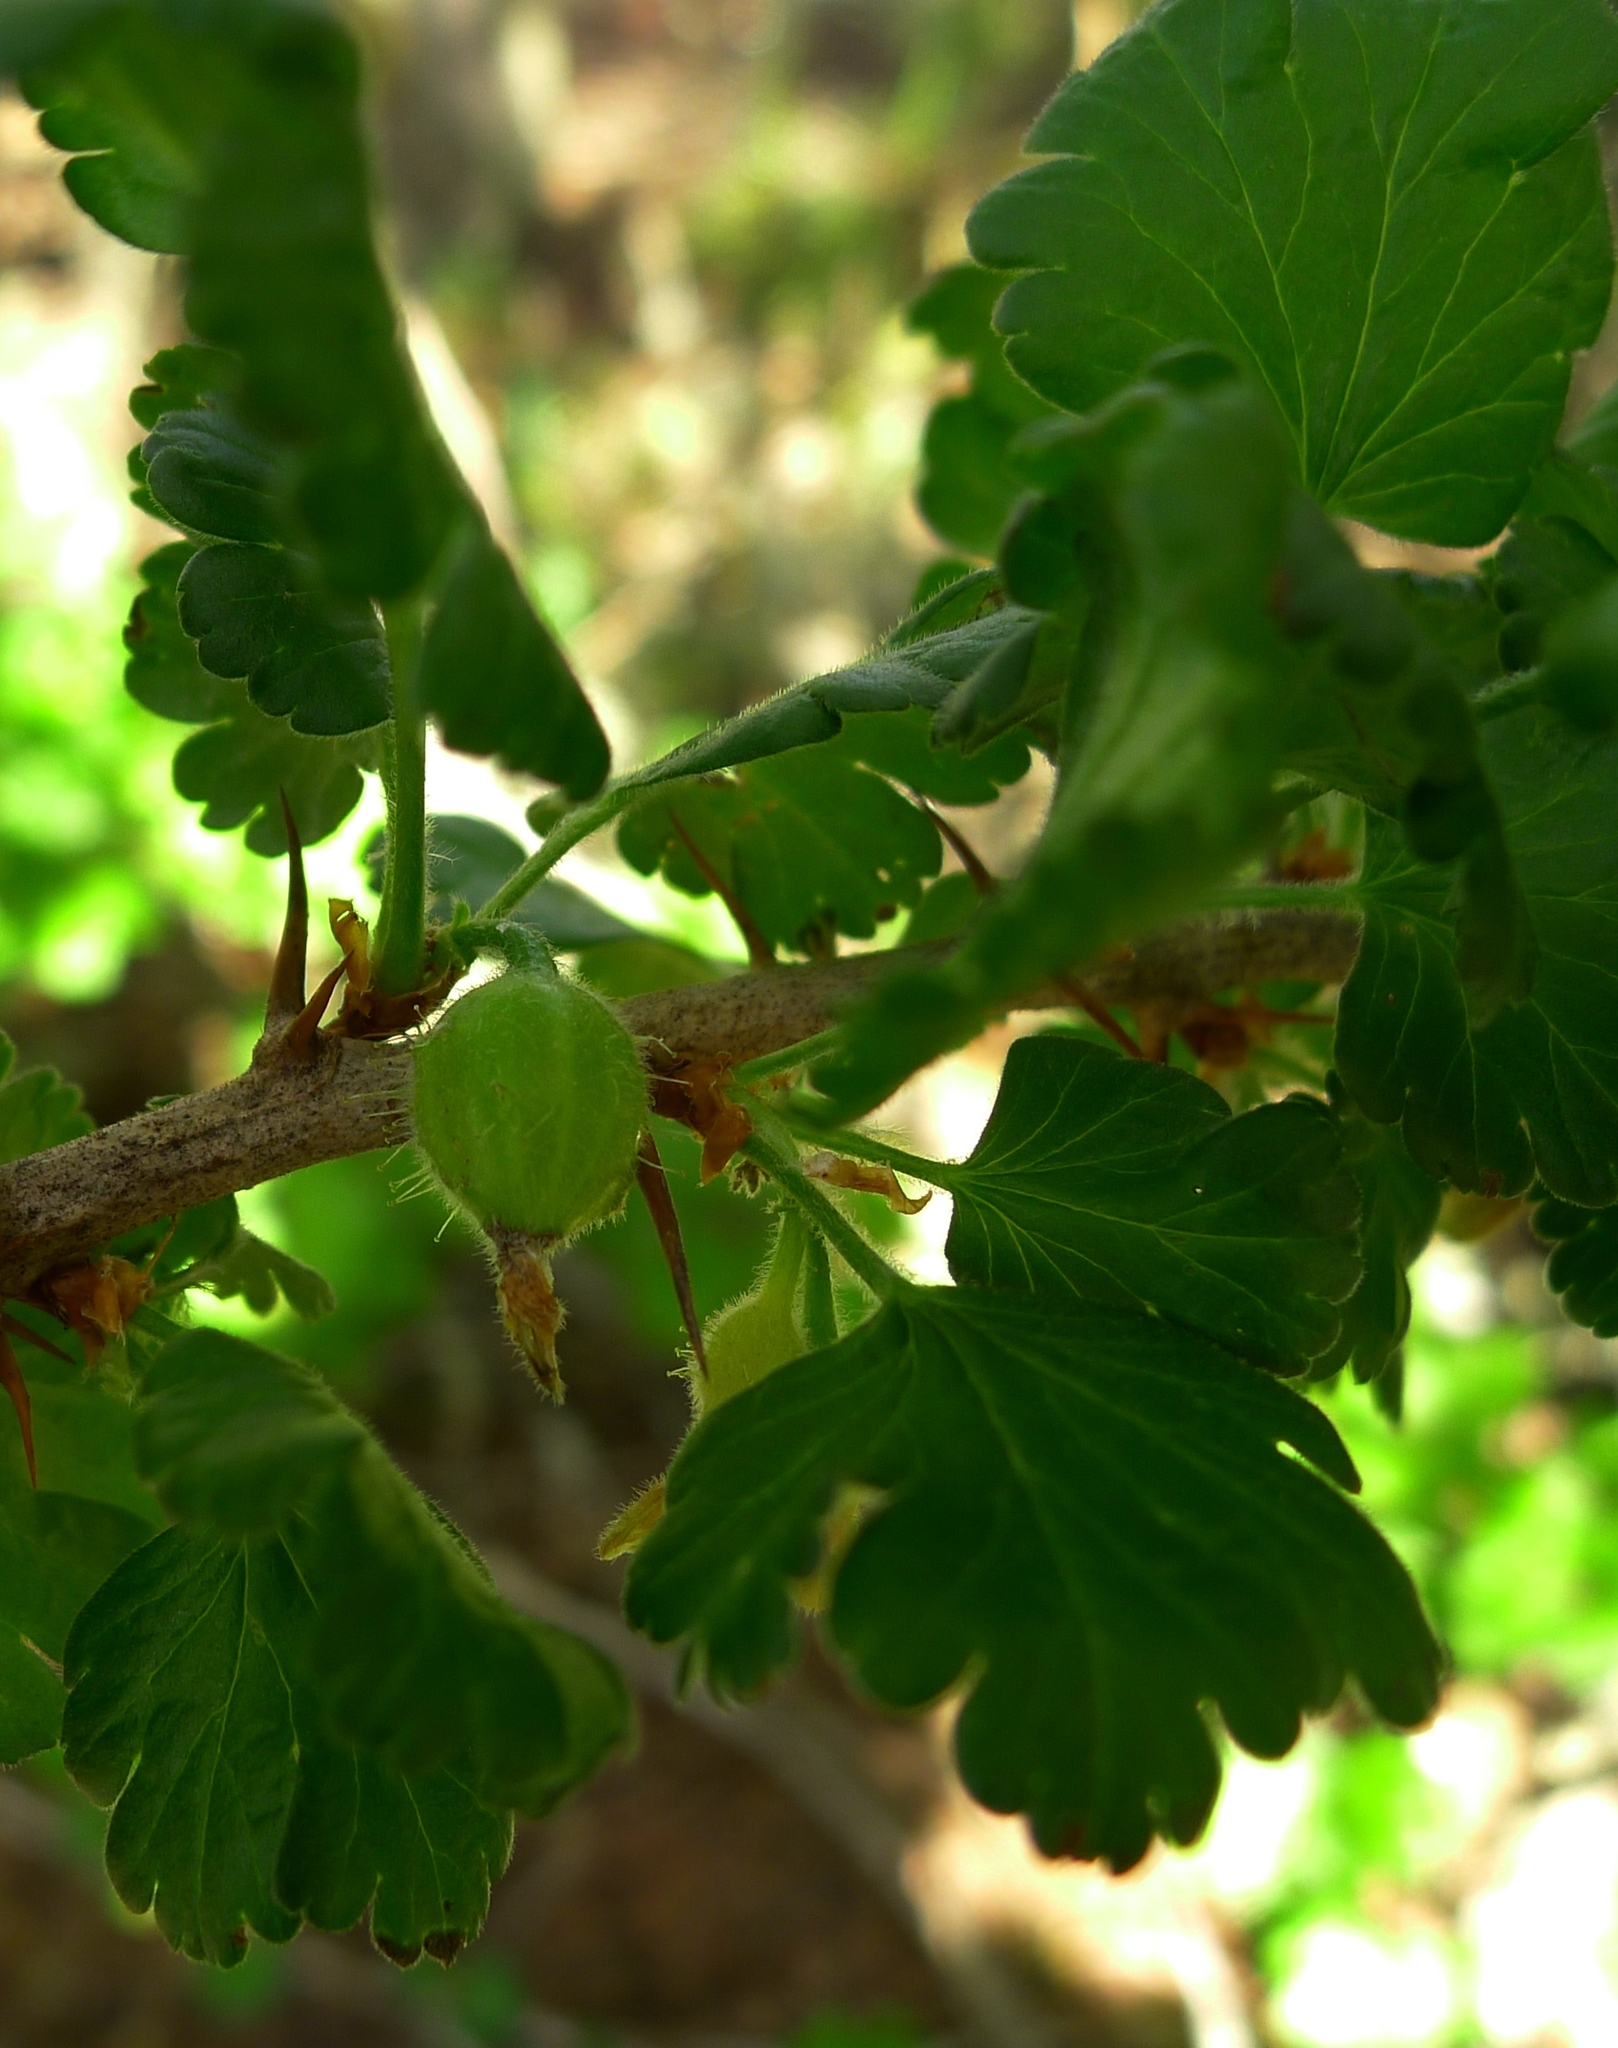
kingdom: Plantae
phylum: Tracheophyta
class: Magnoliopsida
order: Saxifragales
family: Grossulariaceae
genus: Ribes
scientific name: Ribes uva-crispa
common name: Gooseberry
